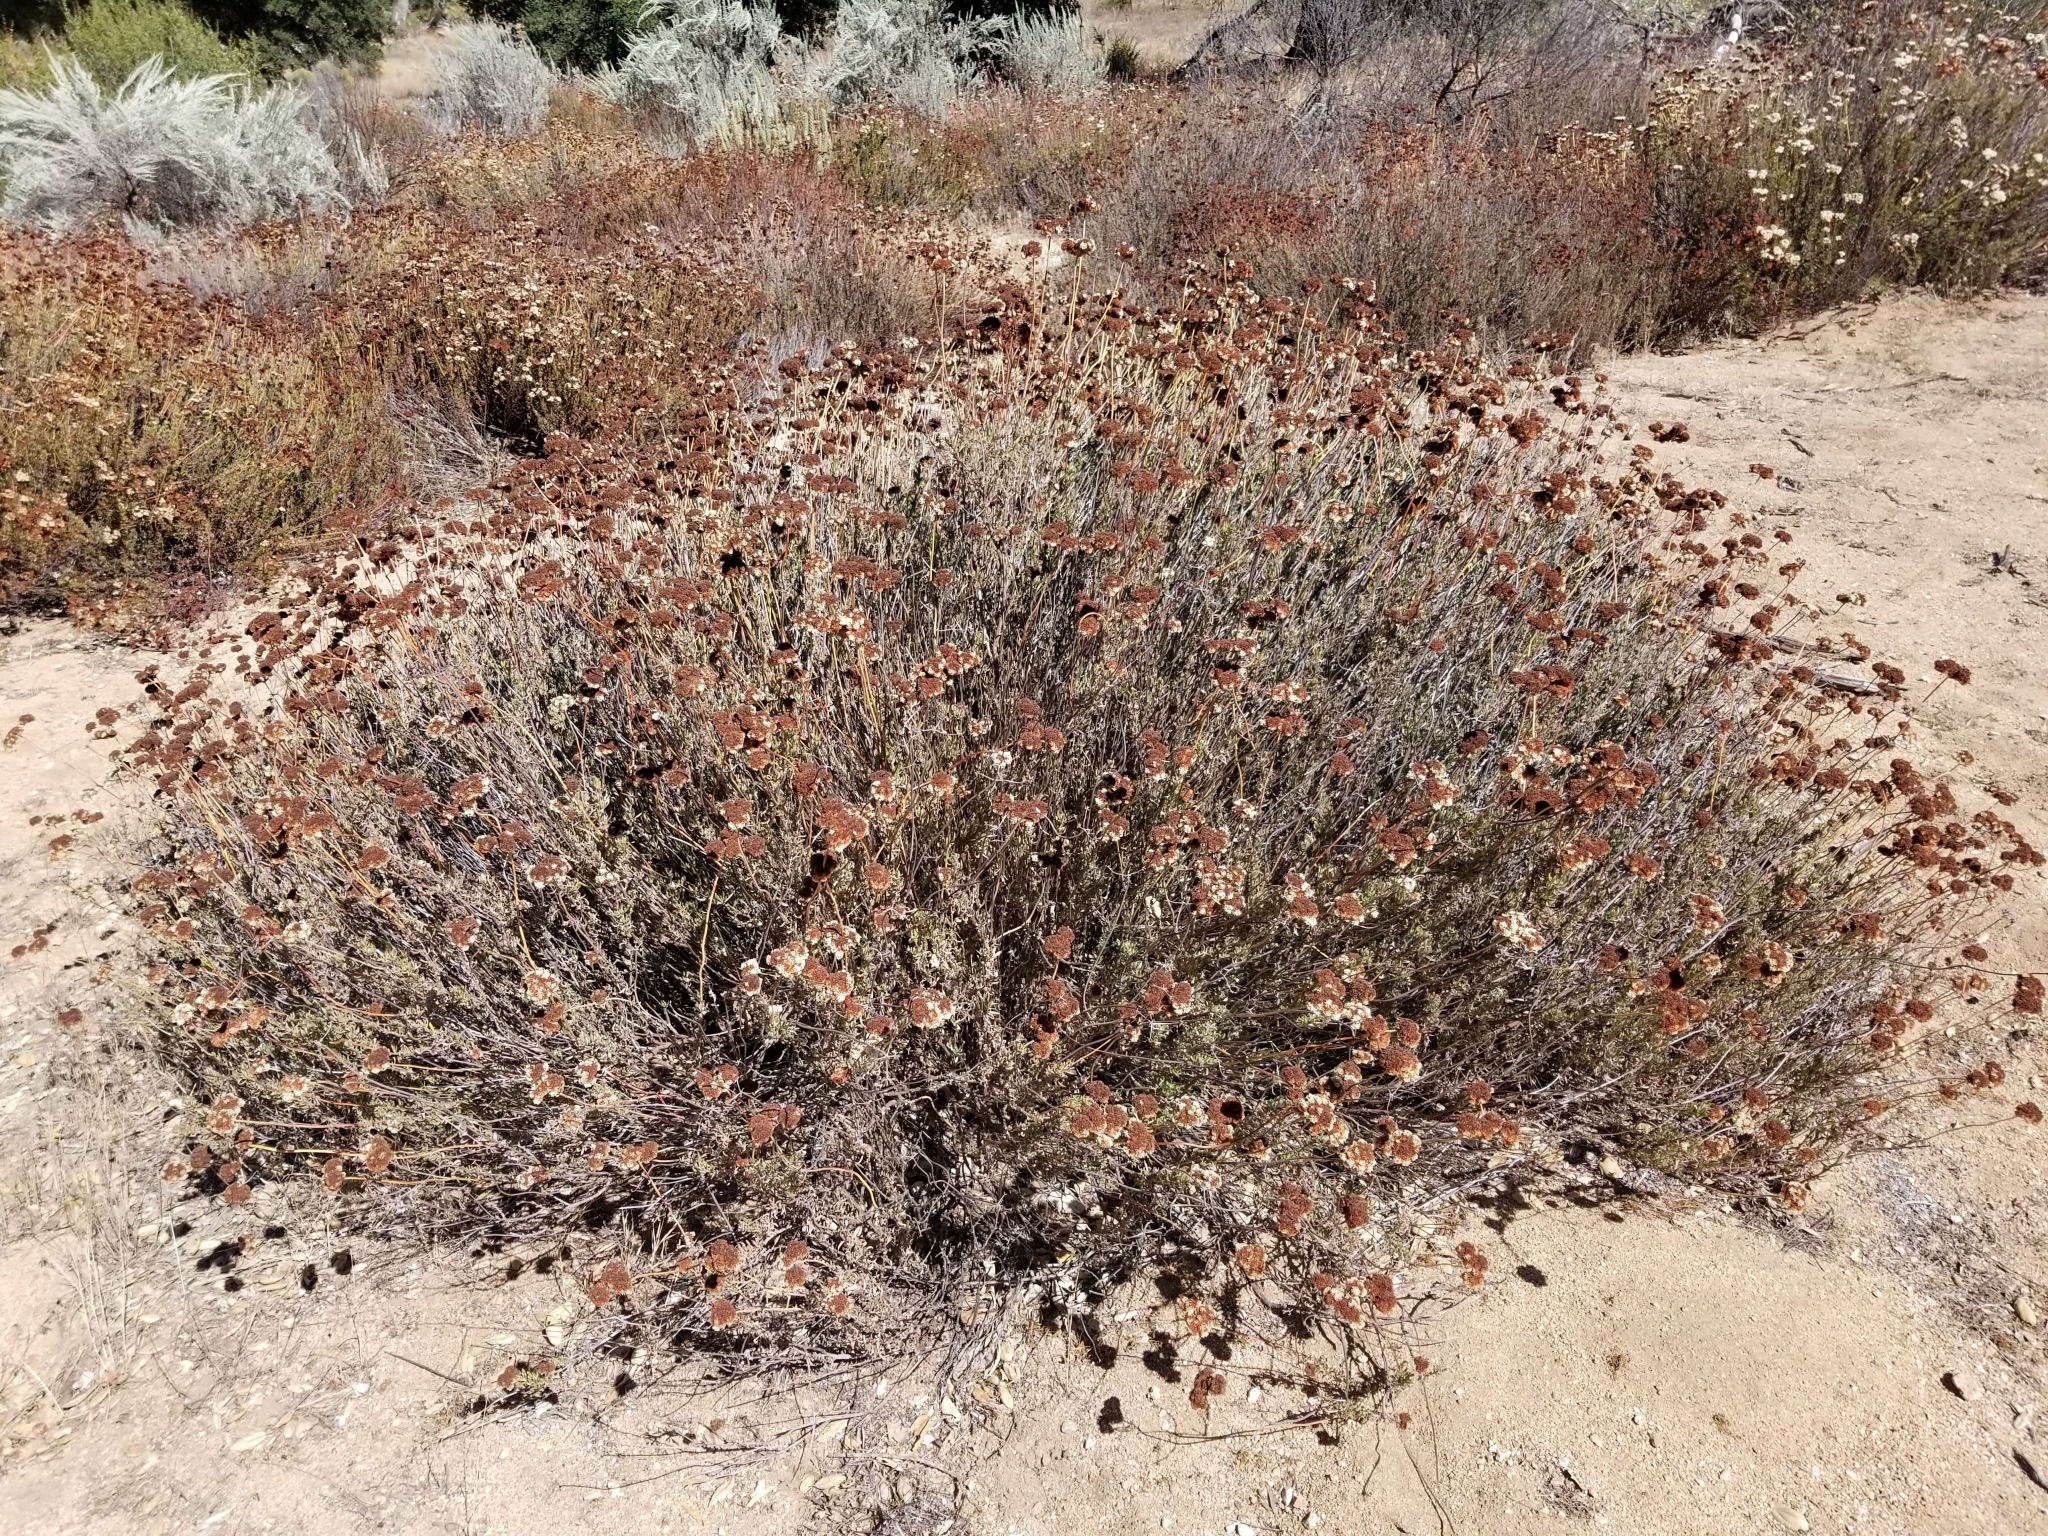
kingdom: Plantae
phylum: Tracheophyta
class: Magnoliopsida
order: Caryophyllales
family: Polygonaceae
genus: Eriogonum
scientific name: Eriogonum fasciculatum
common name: California wild buckwheat
